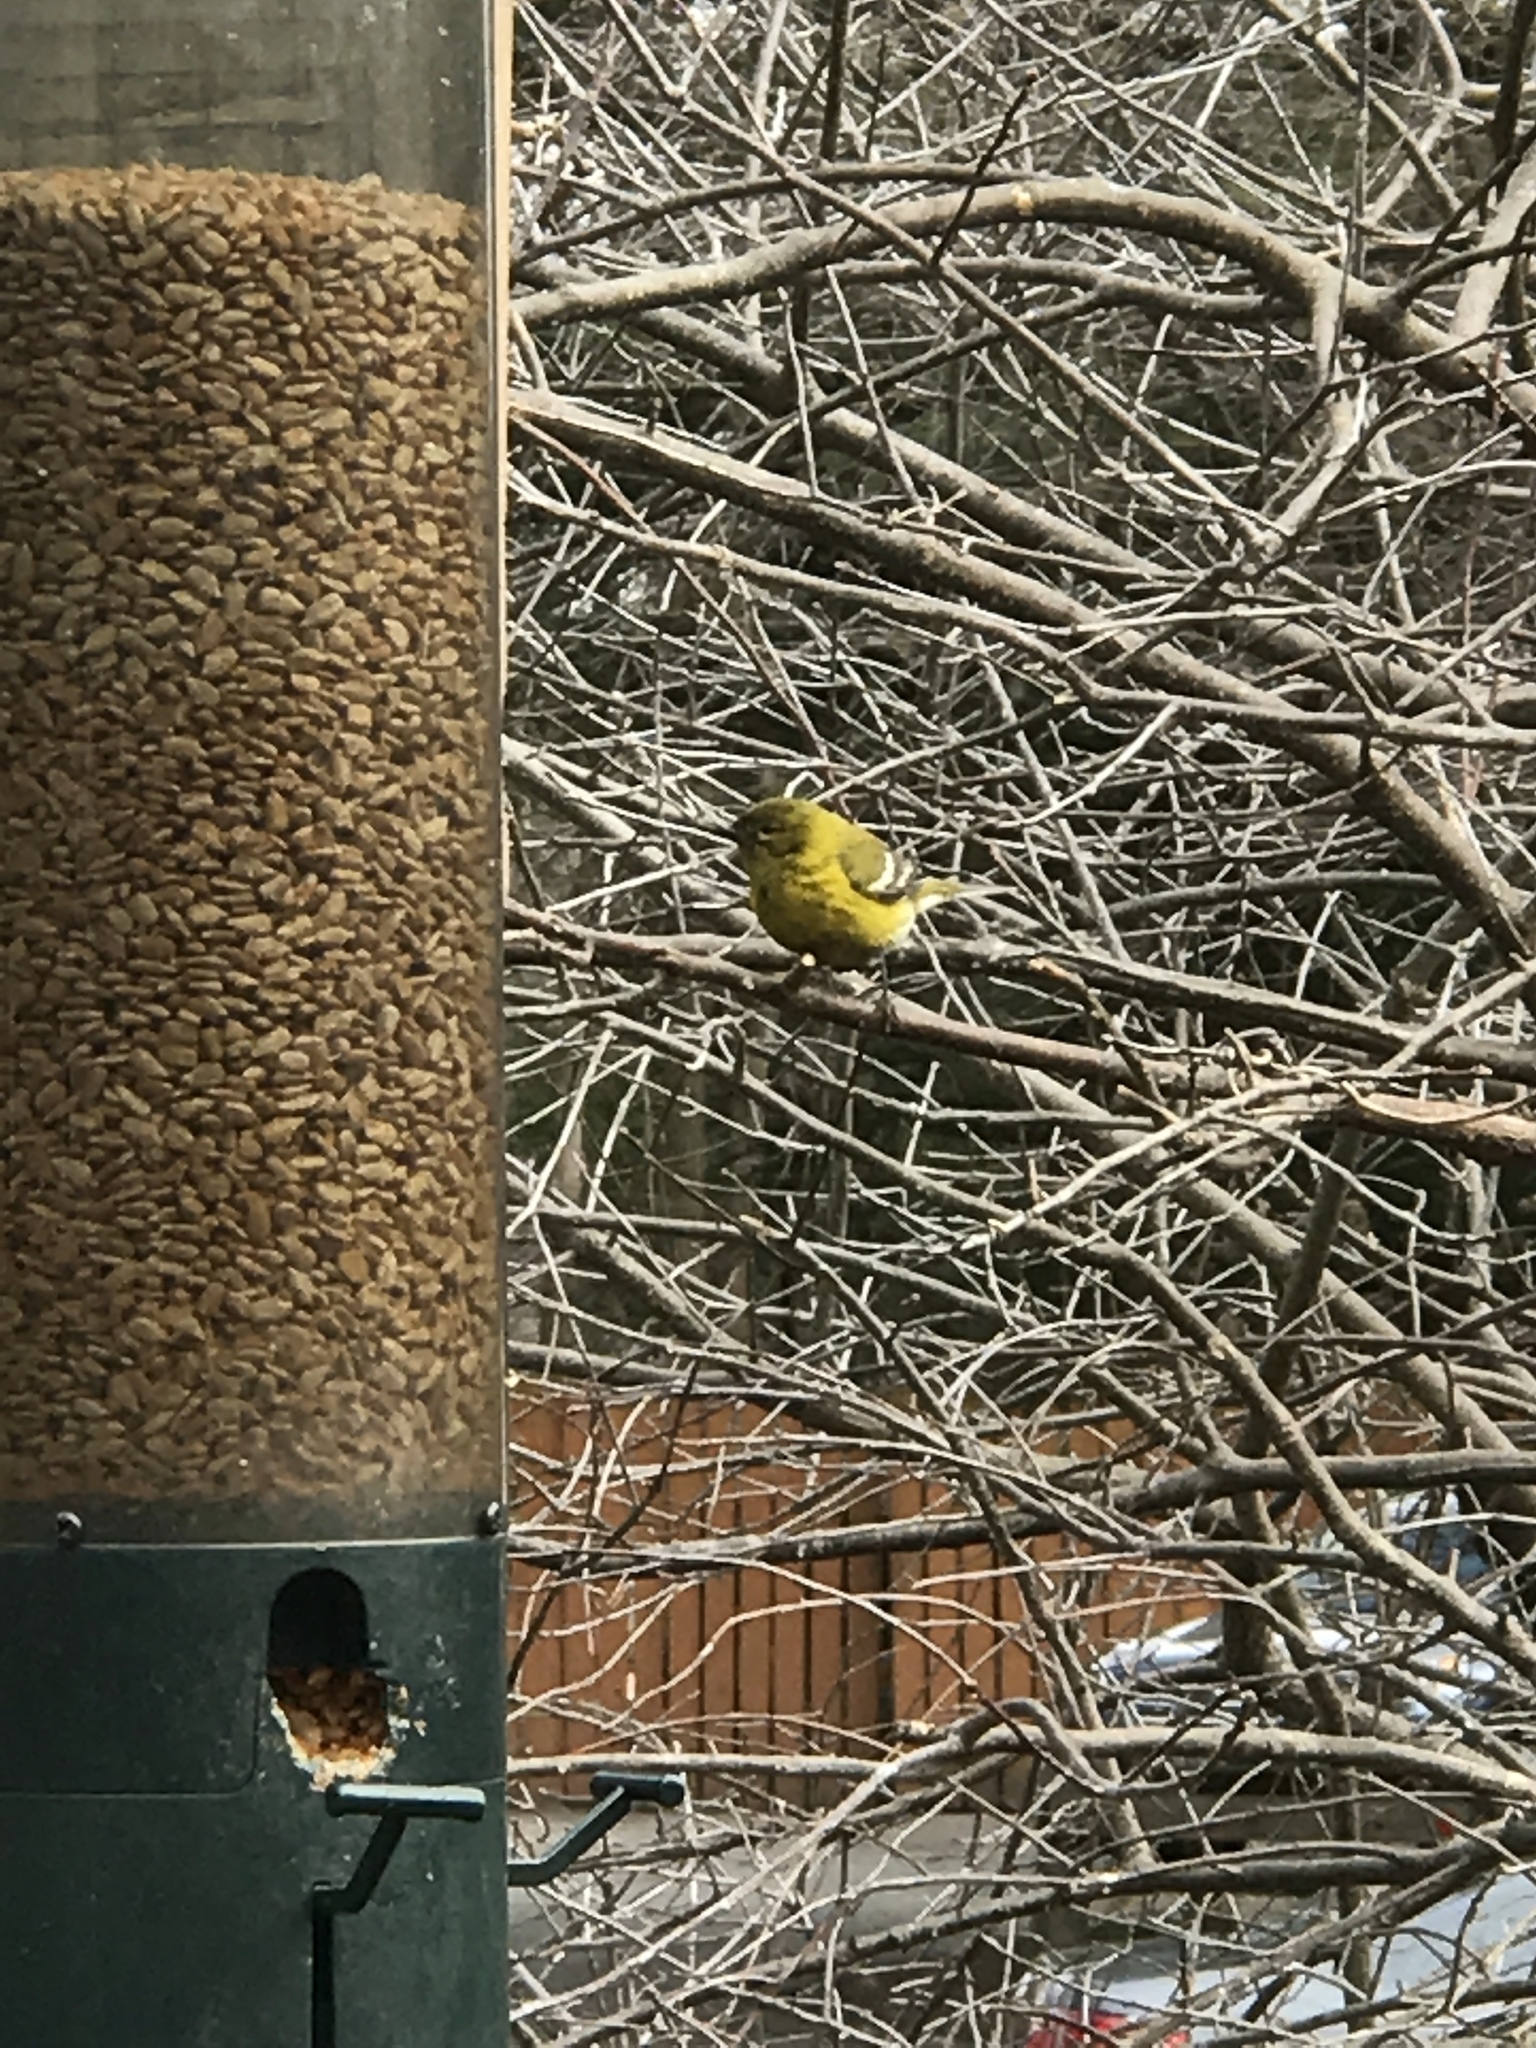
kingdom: Animalia
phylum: Chordata
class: Aves
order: Passeriformes
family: Parulidae
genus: Setophaga
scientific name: Setophaga pinus
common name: Pine warbler
